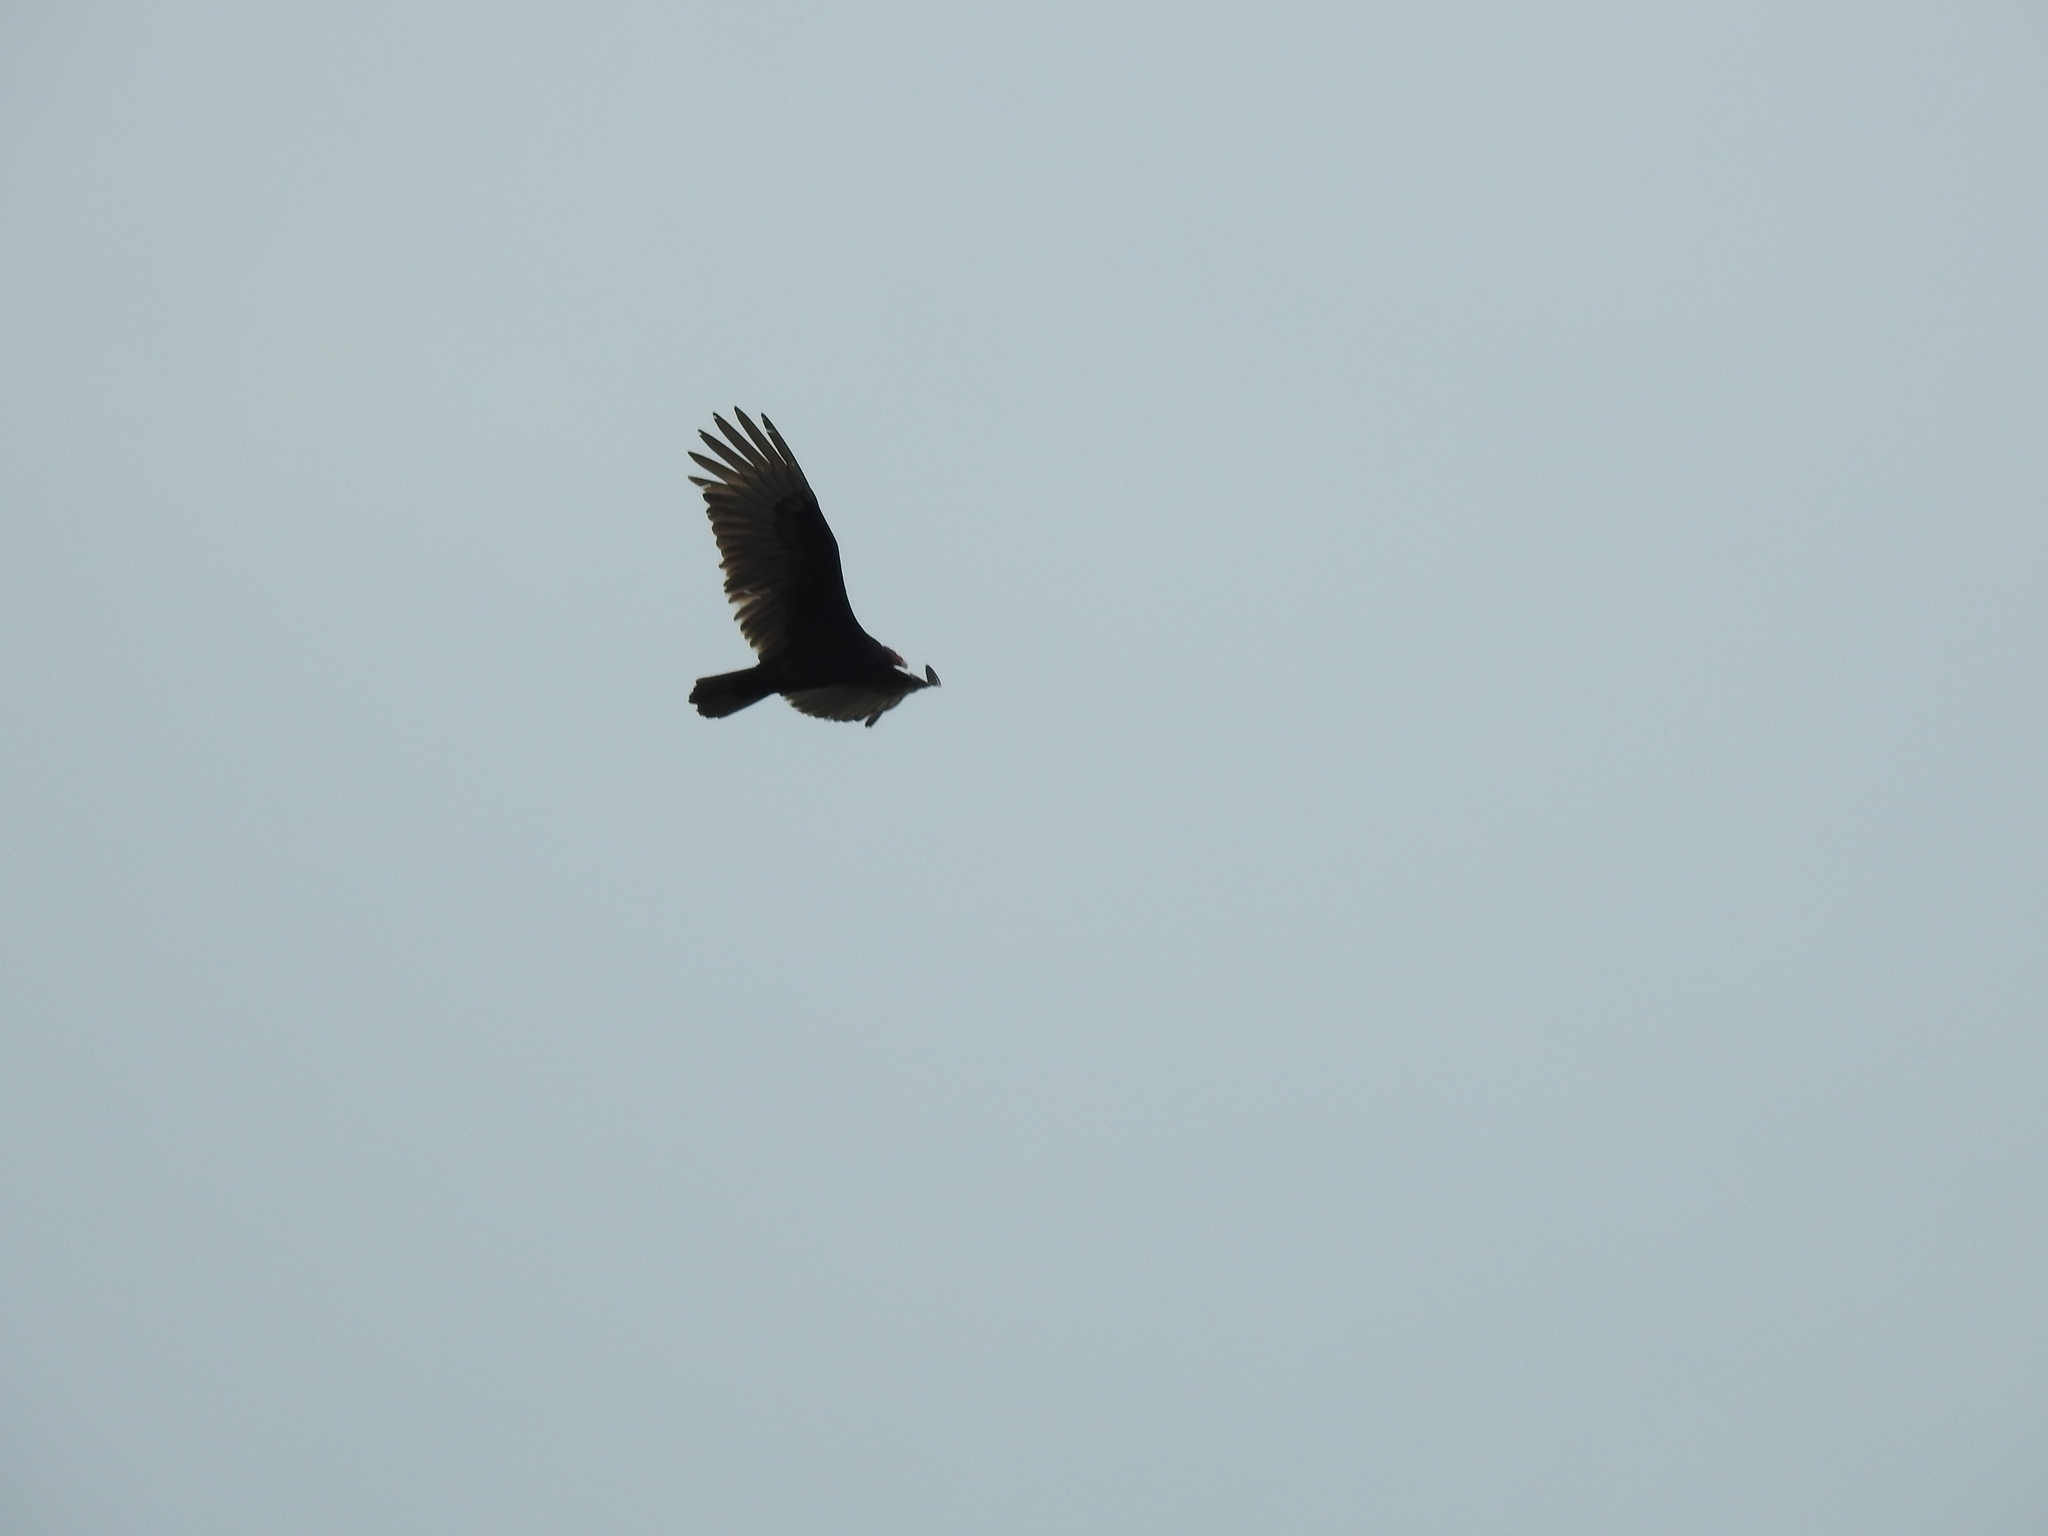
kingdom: Animalia
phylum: Chordata
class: Aves
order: Accipitriformes
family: Cathartidae
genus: Cathartes
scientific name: Cathartes aura
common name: Turkey vulture
